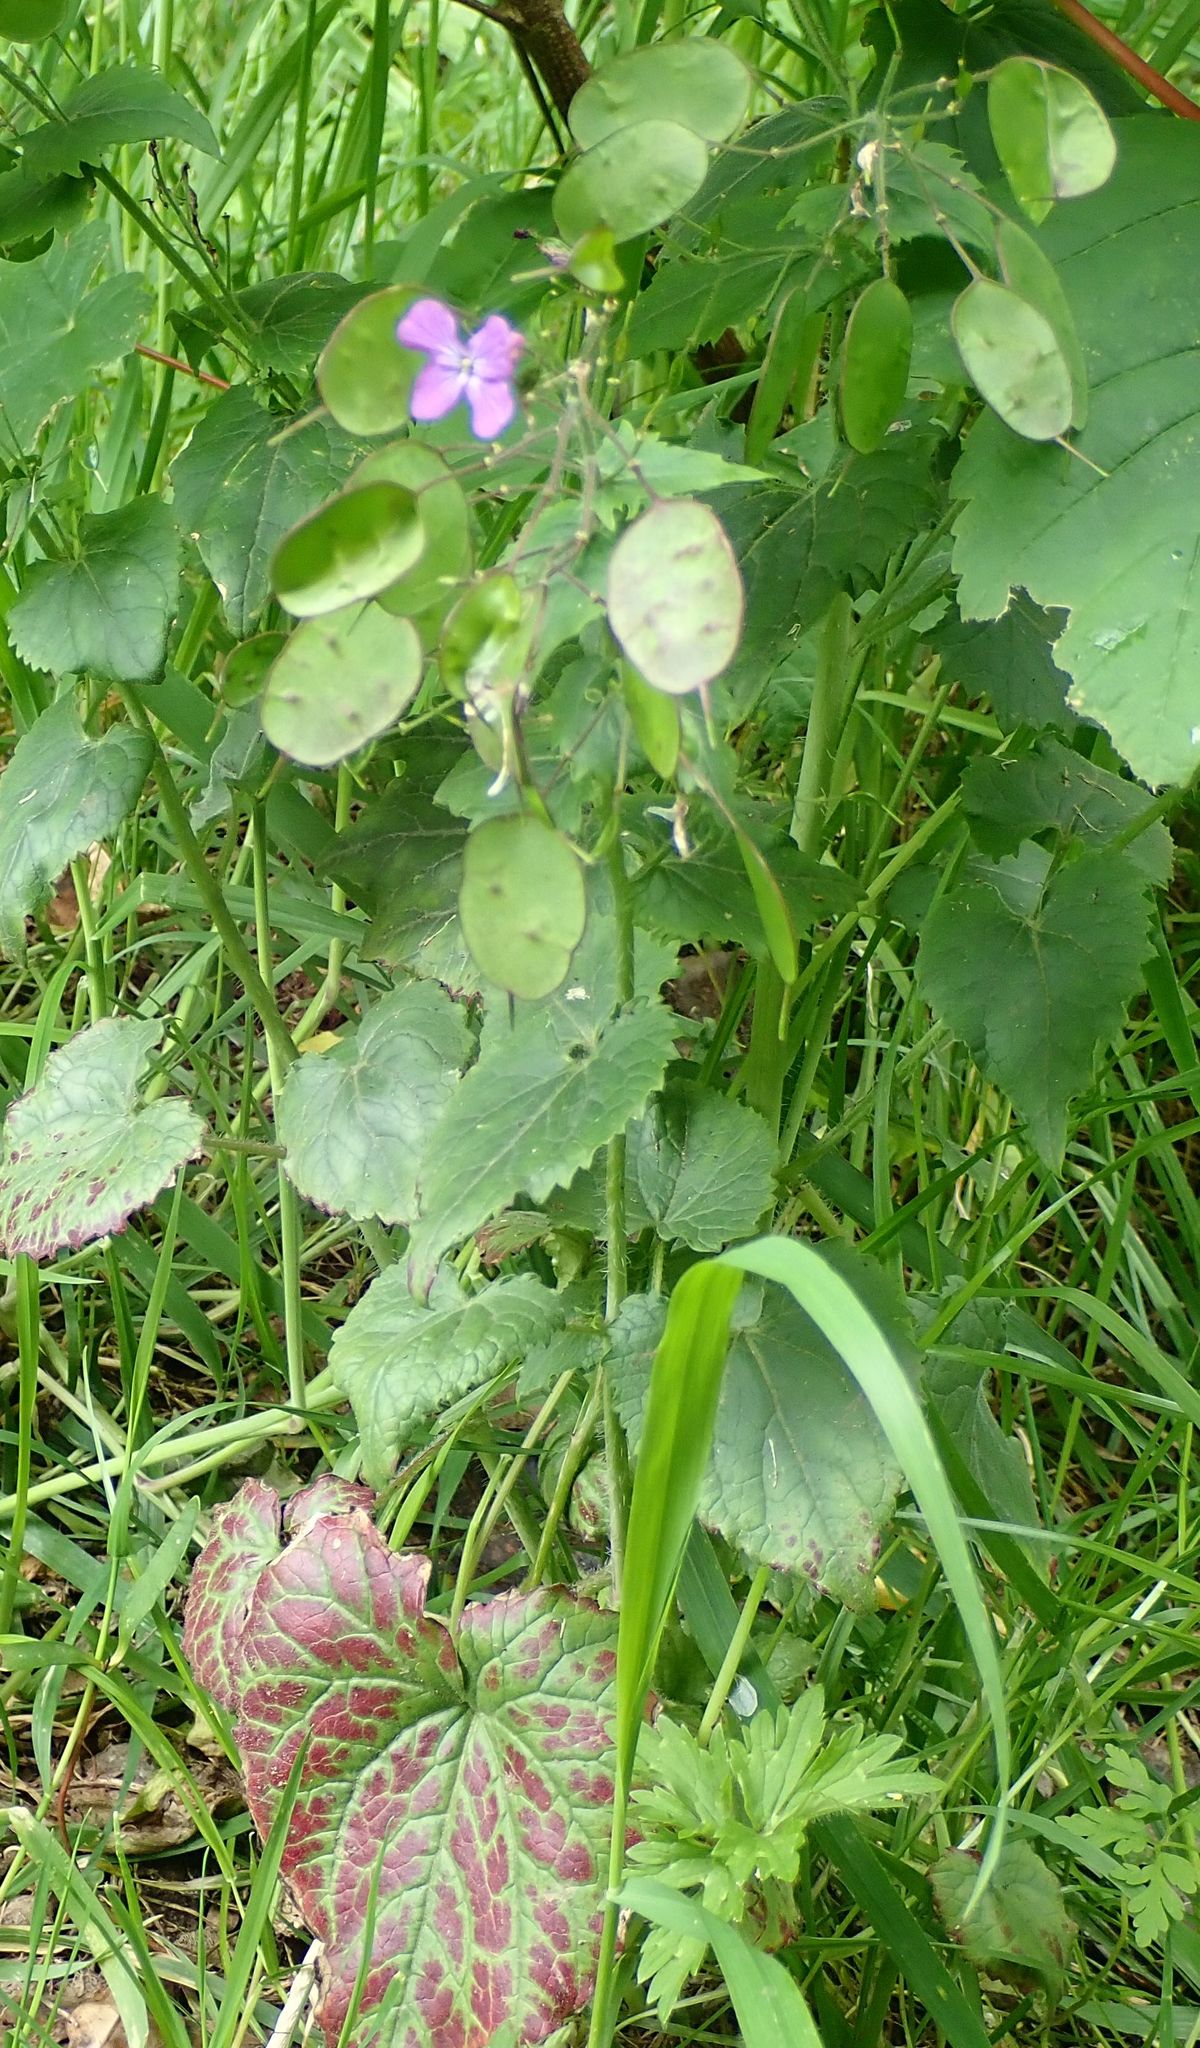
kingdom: Plantae
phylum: Tracheophyta
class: Magnoliopsida
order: Brassicales
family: Brassicaceae
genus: Lunaria
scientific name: Lunaria annua
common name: Honesty
